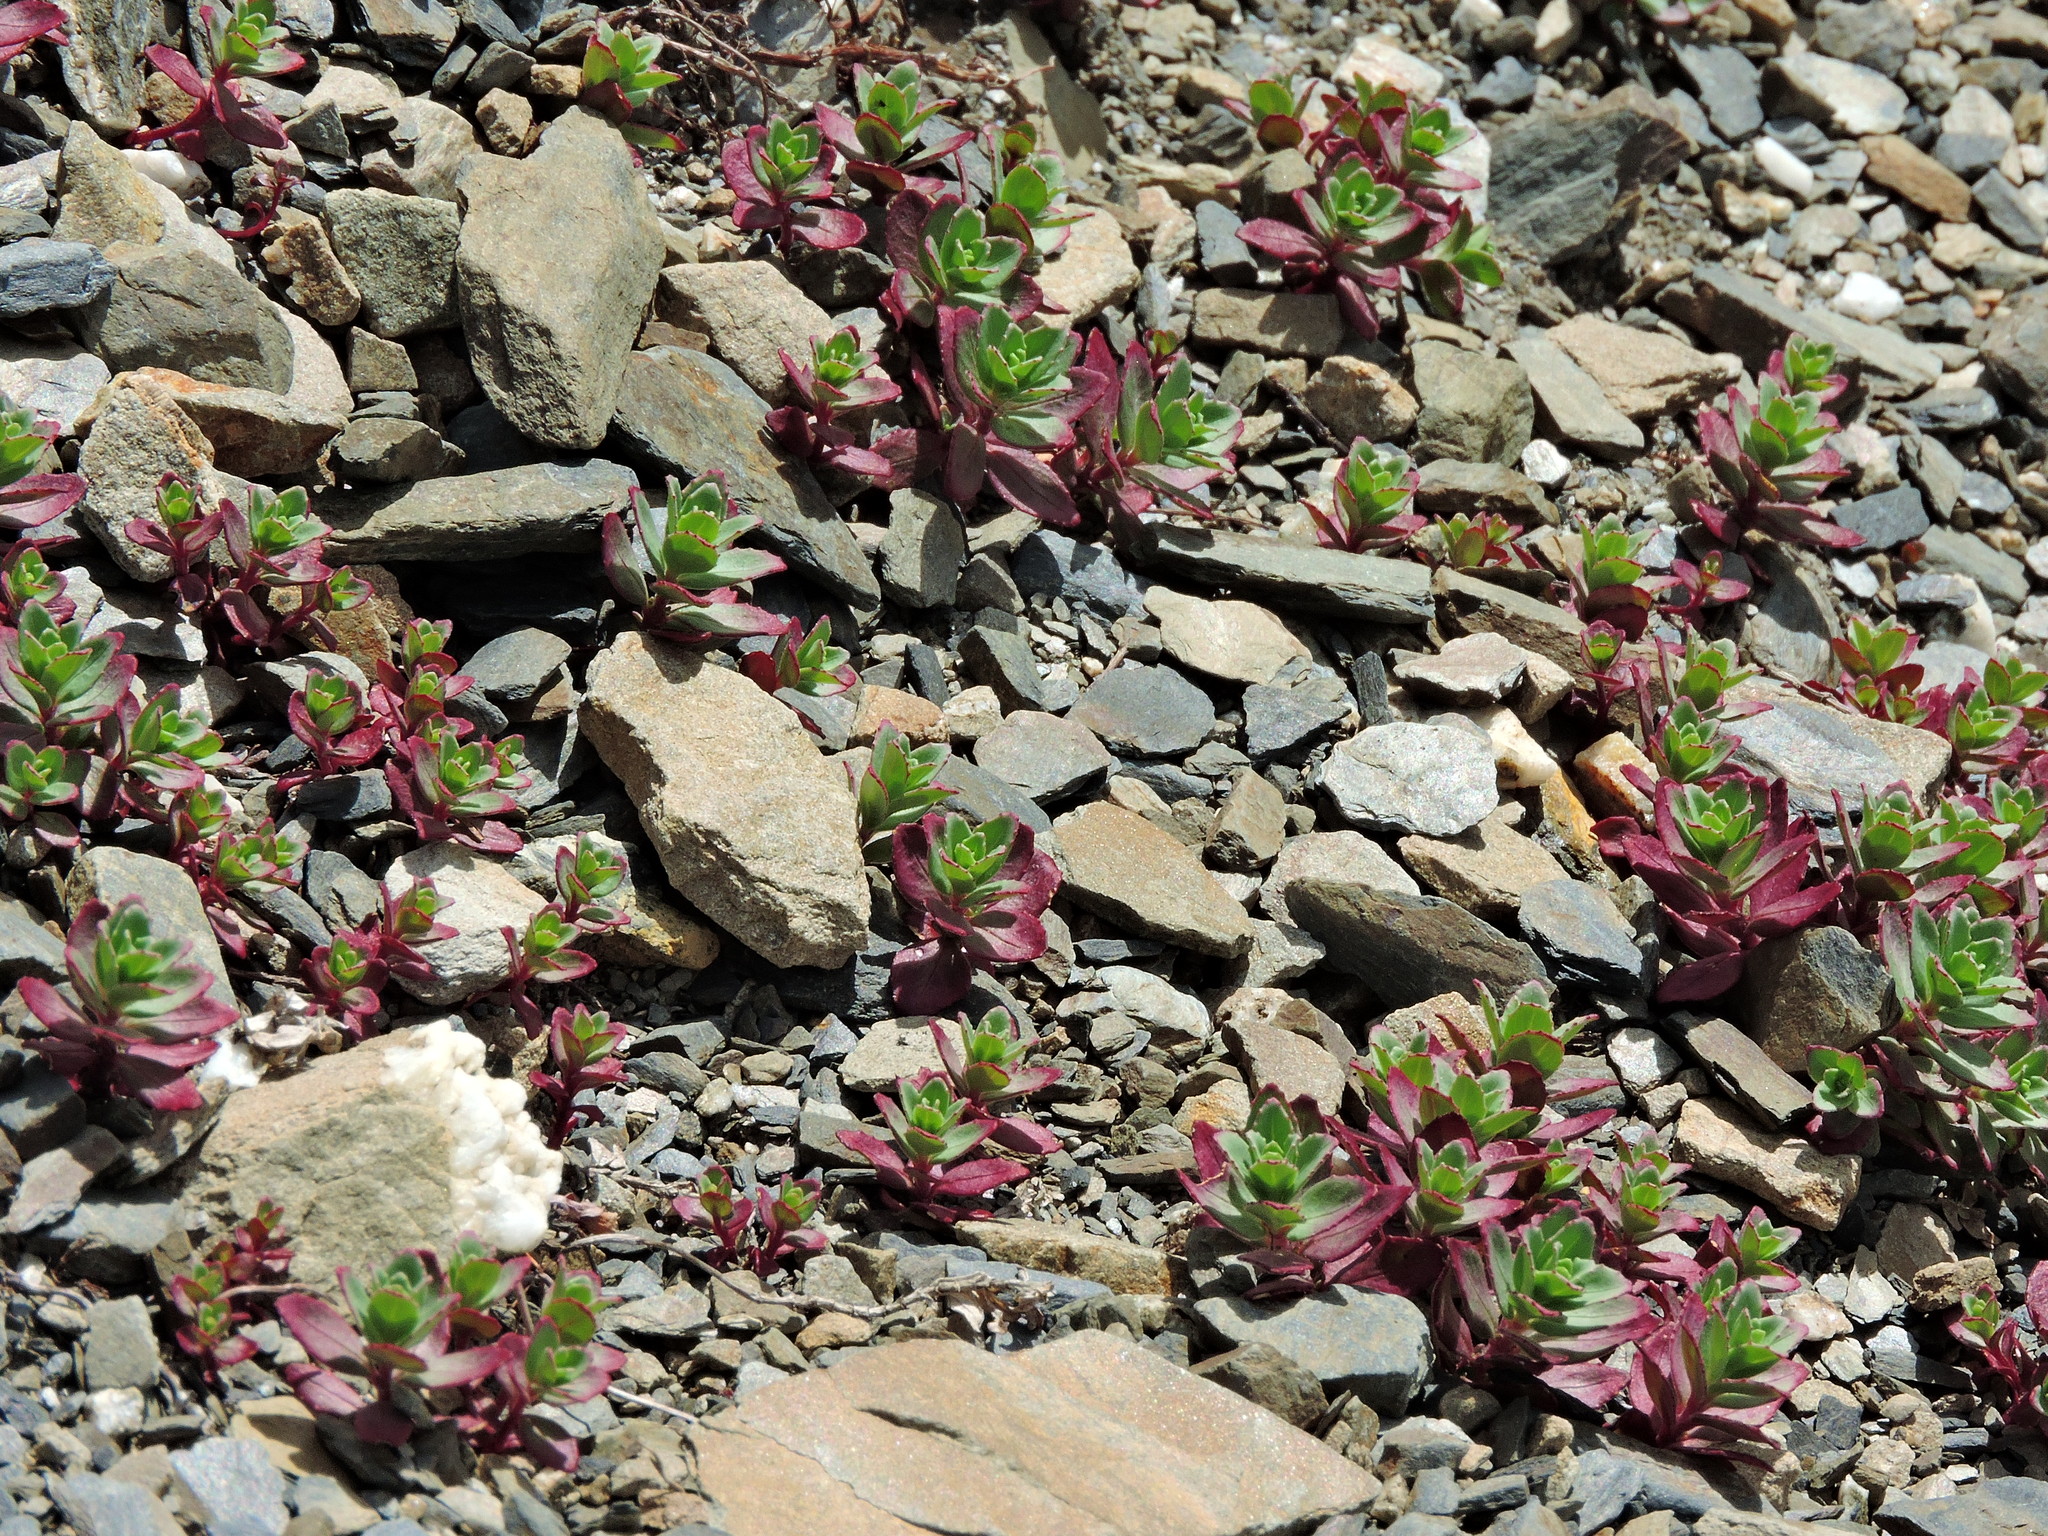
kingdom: Plantae
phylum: Tracheophyta
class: Magnoliopsida
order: Myrtales
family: Onagraceae
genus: Epilobium
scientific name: Epilobium nankotaizanense
